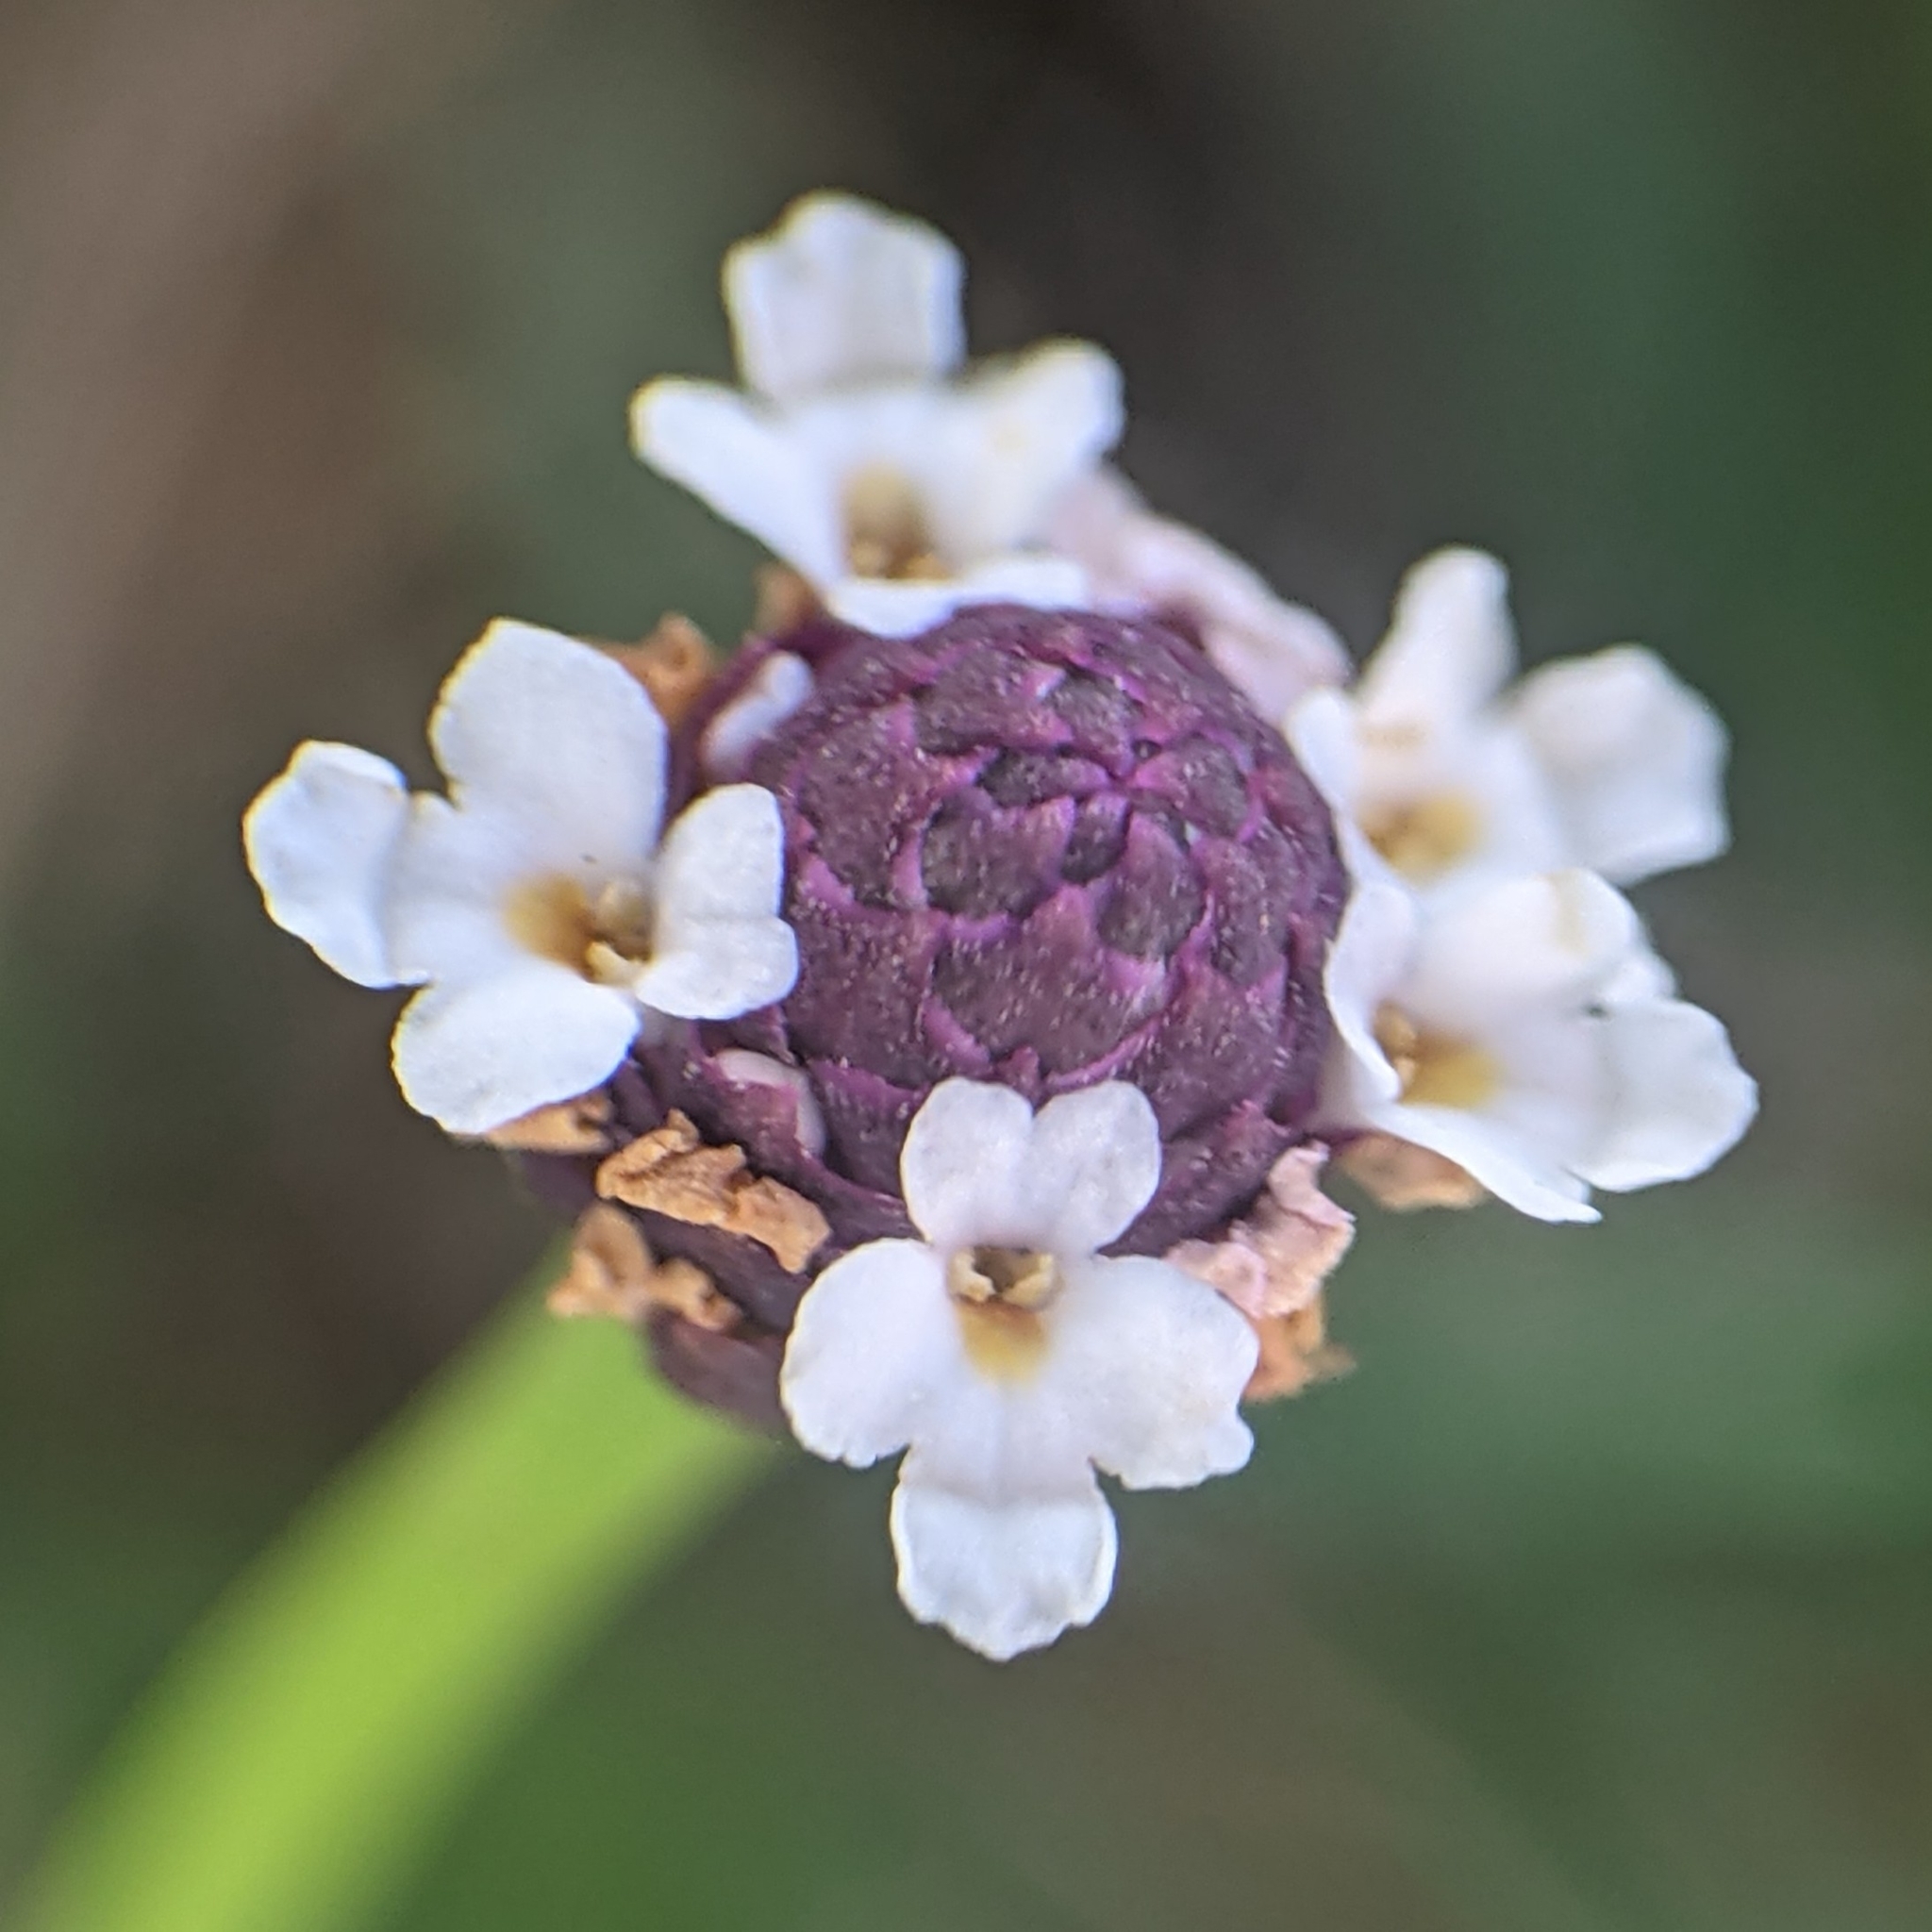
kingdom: Plantae
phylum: Tracheophyta
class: Magnoliopsida
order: Lamiales
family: Verbenaceae
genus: Phyla
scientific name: Phyla nodiflora
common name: Frogfruit
